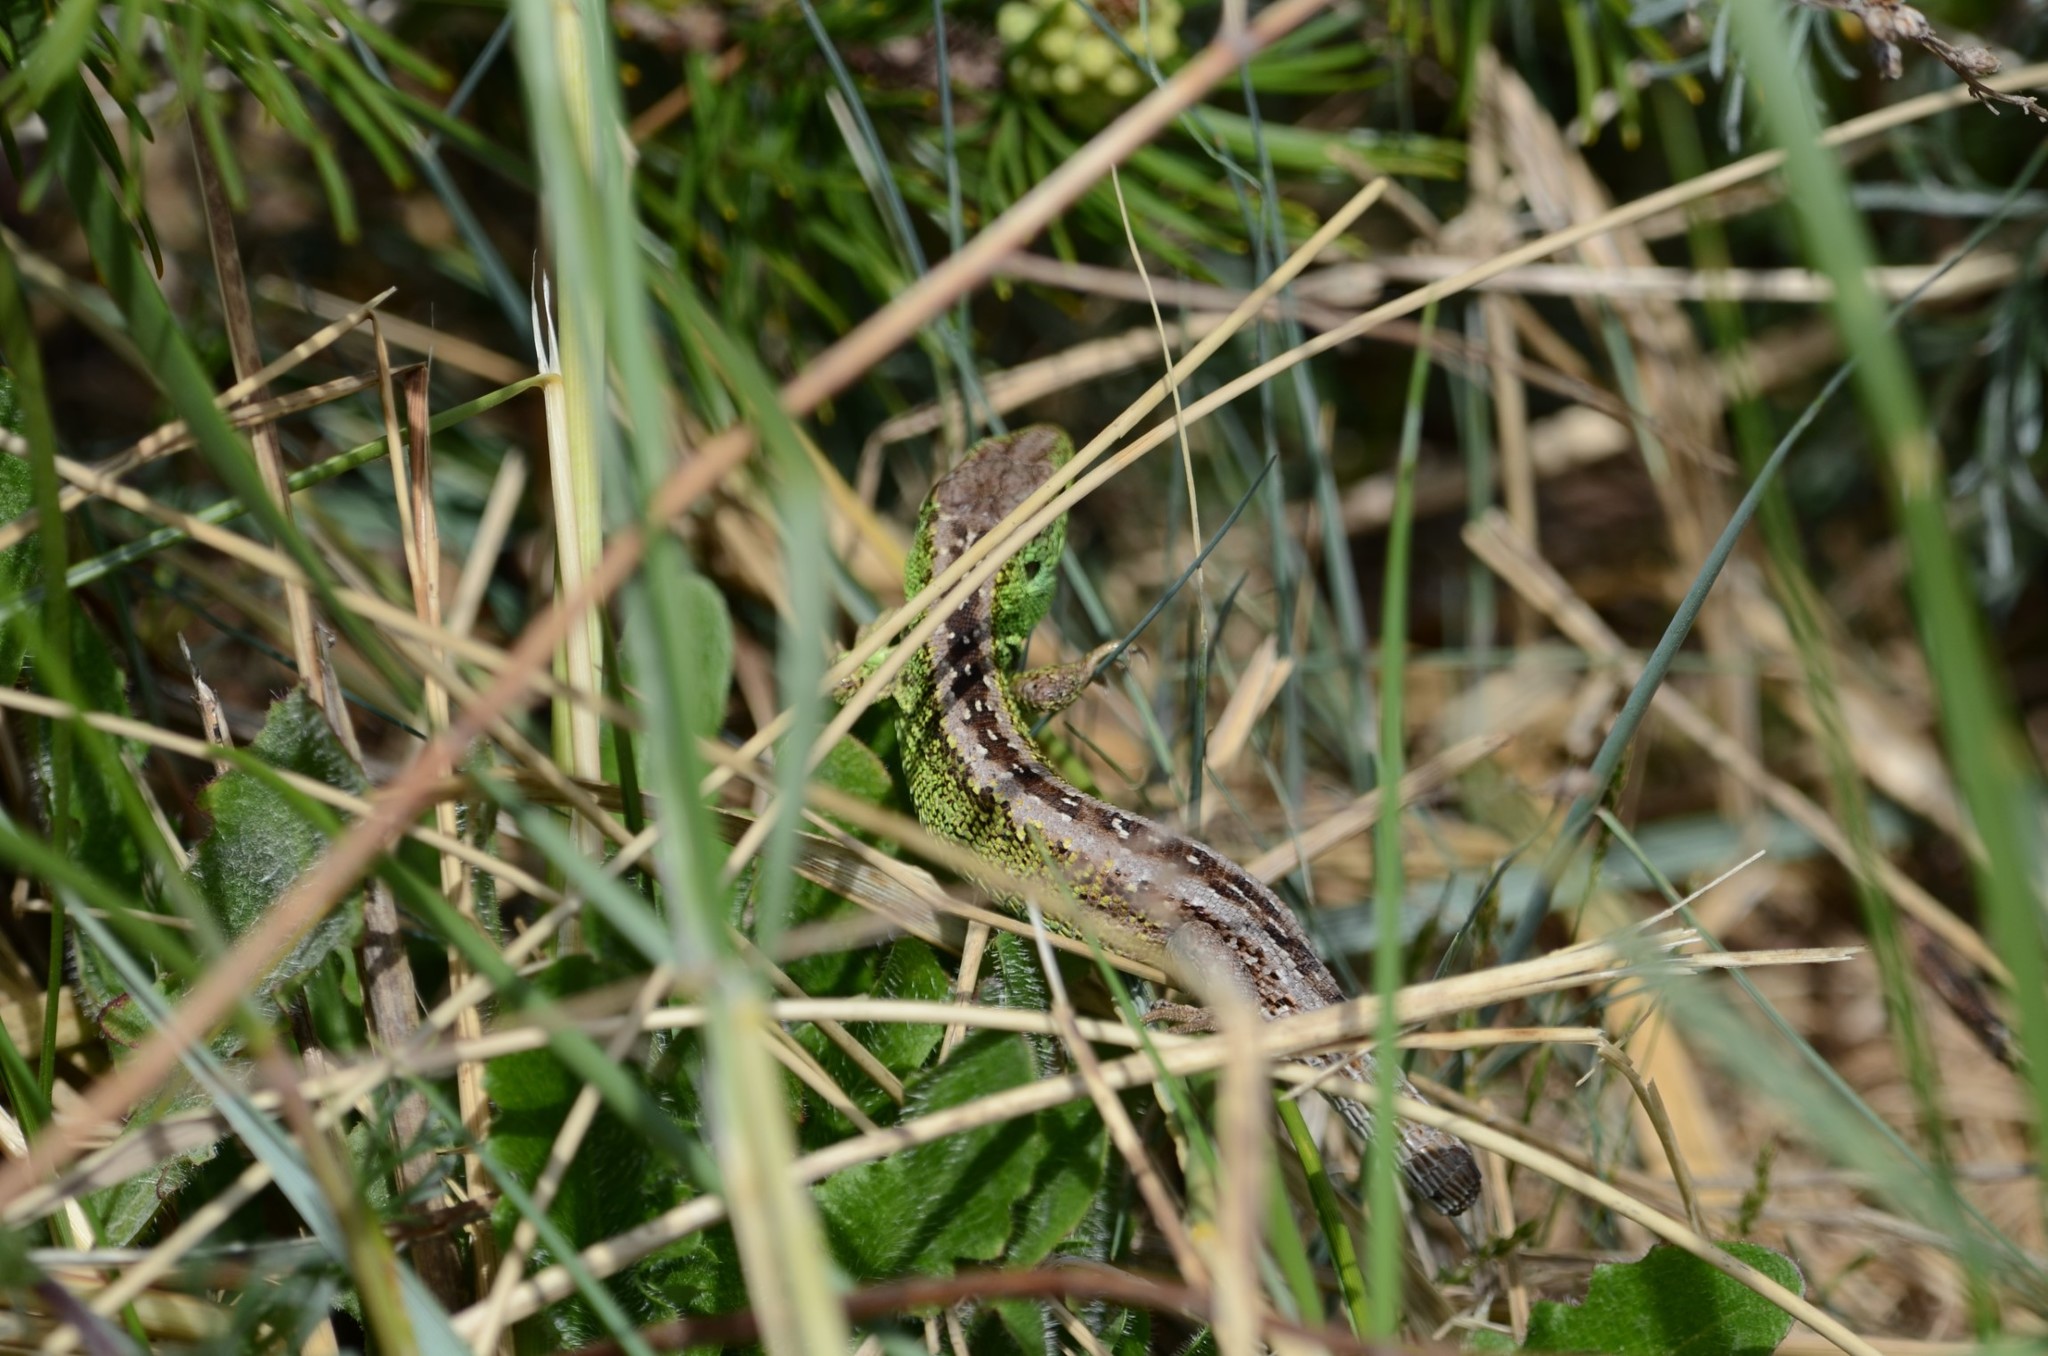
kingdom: Animalia
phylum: Chordata
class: Squamata
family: Lacertidae
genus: Lacerta
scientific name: Lacerta agilis
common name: Sand lizard
